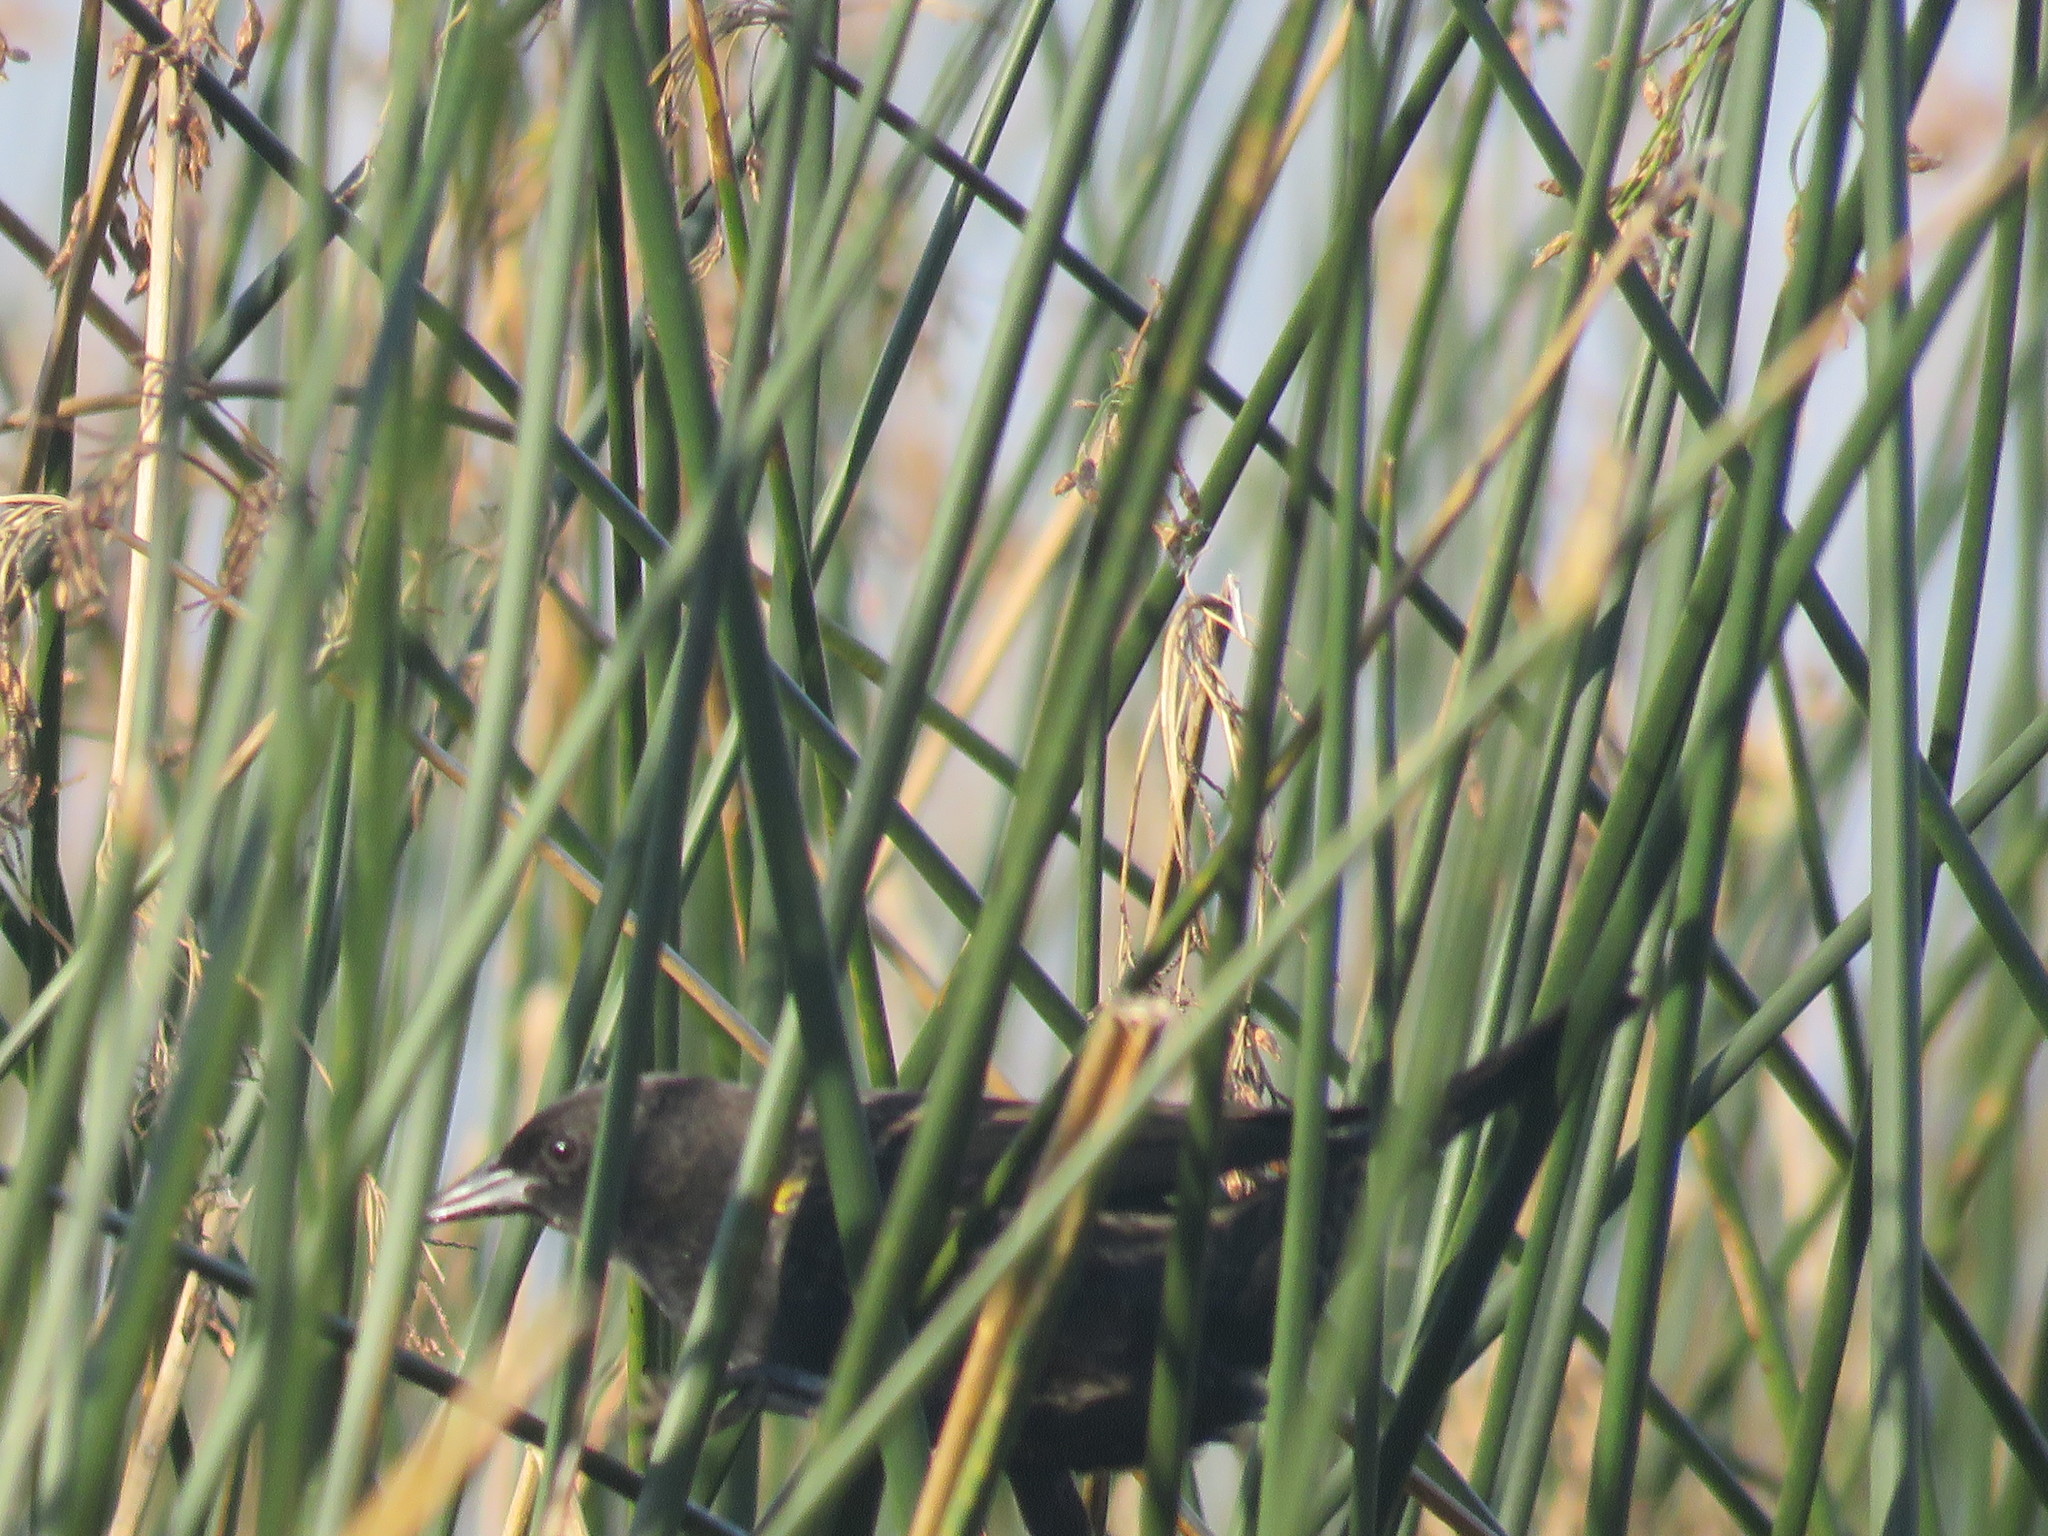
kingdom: Animalia
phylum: Chordata
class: Aves
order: Passeriformes
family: Icteridae
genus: Agelasticus
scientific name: Agelasticus thilius
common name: Yellow-winged blackbird
